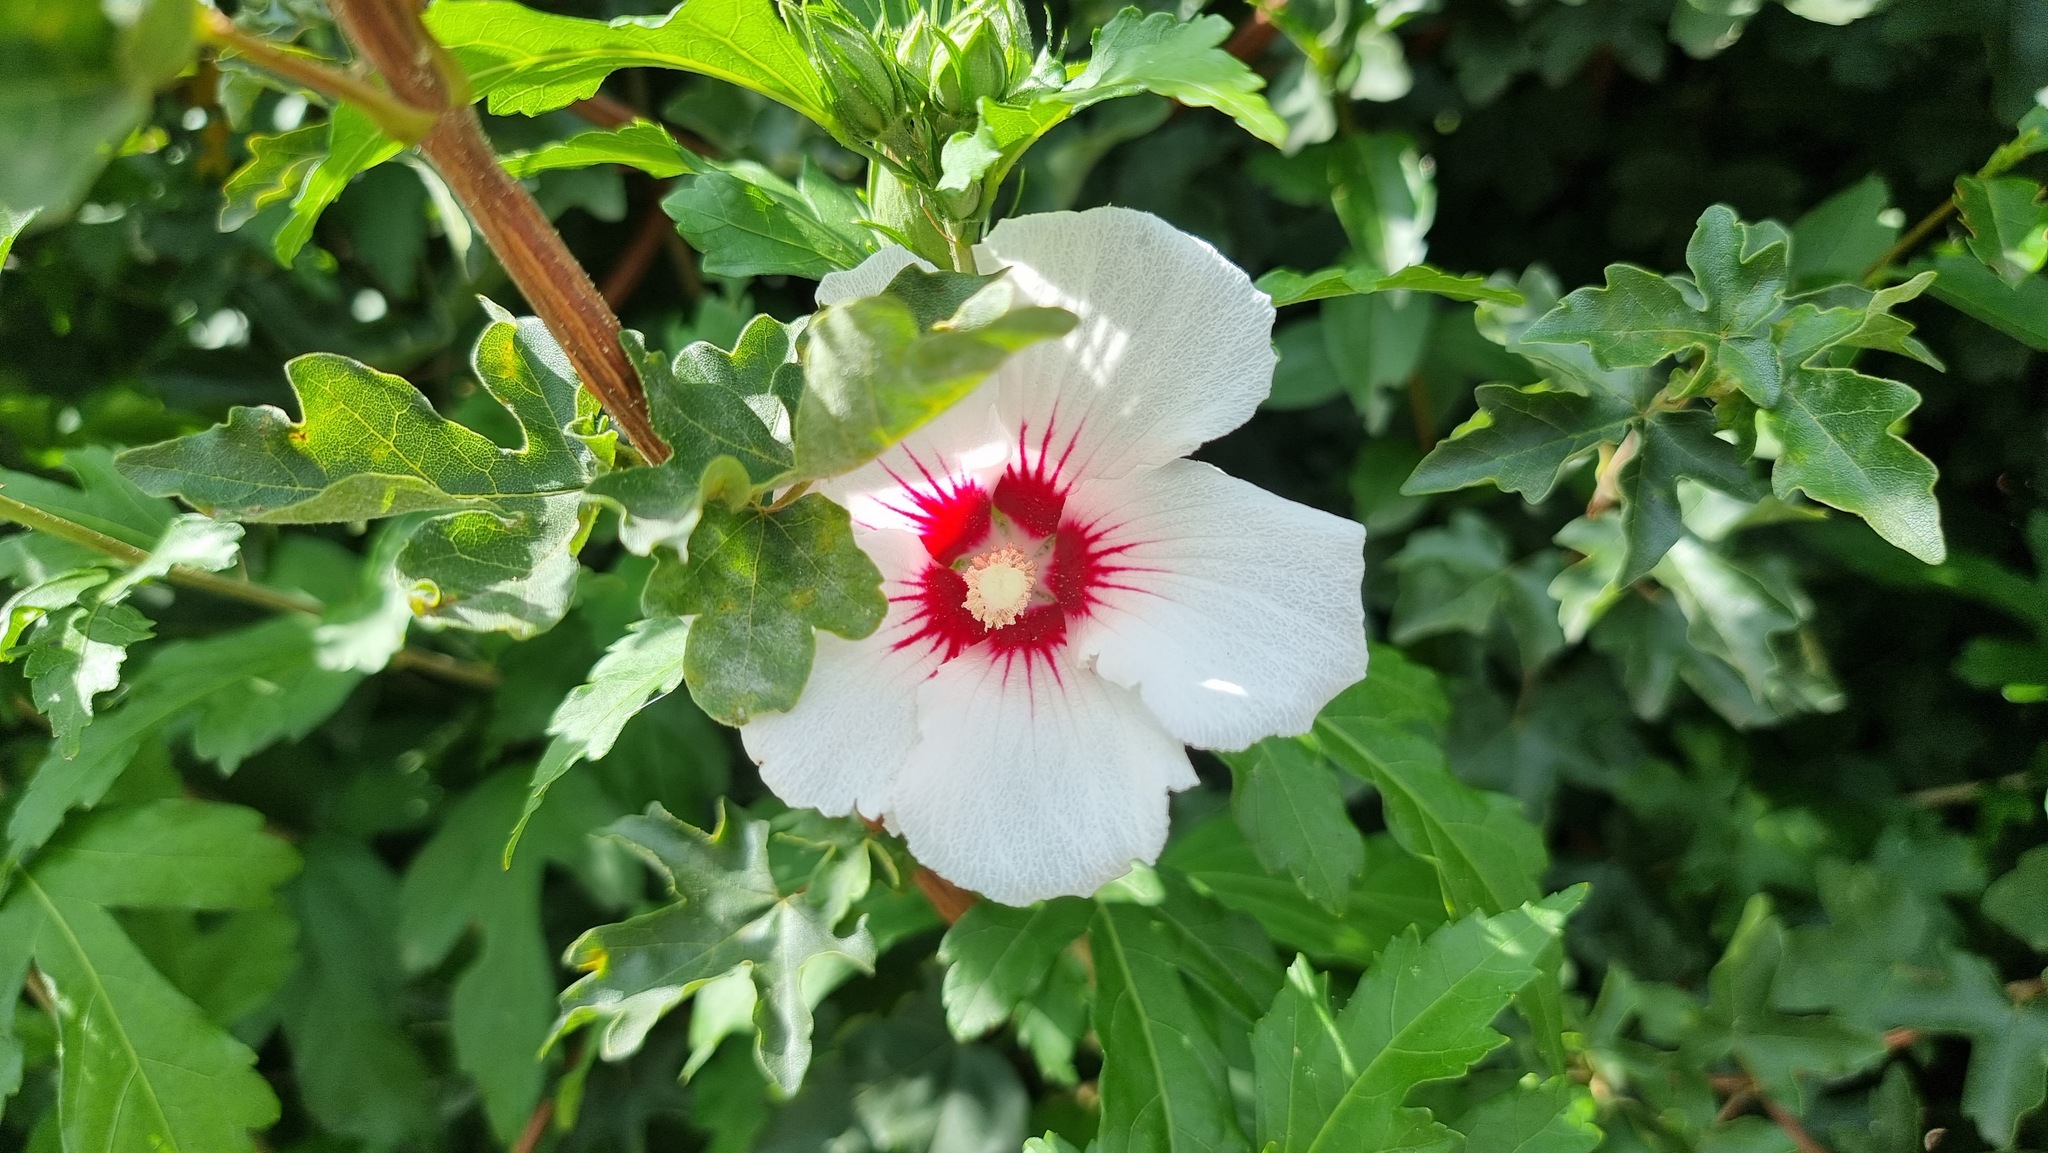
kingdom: Plantae
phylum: Tracheophyta
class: Magnoliopsida
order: Malvales
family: Malvaceae
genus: Hibiscus
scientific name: Hibiscus syriacus
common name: Syrian ketmia
